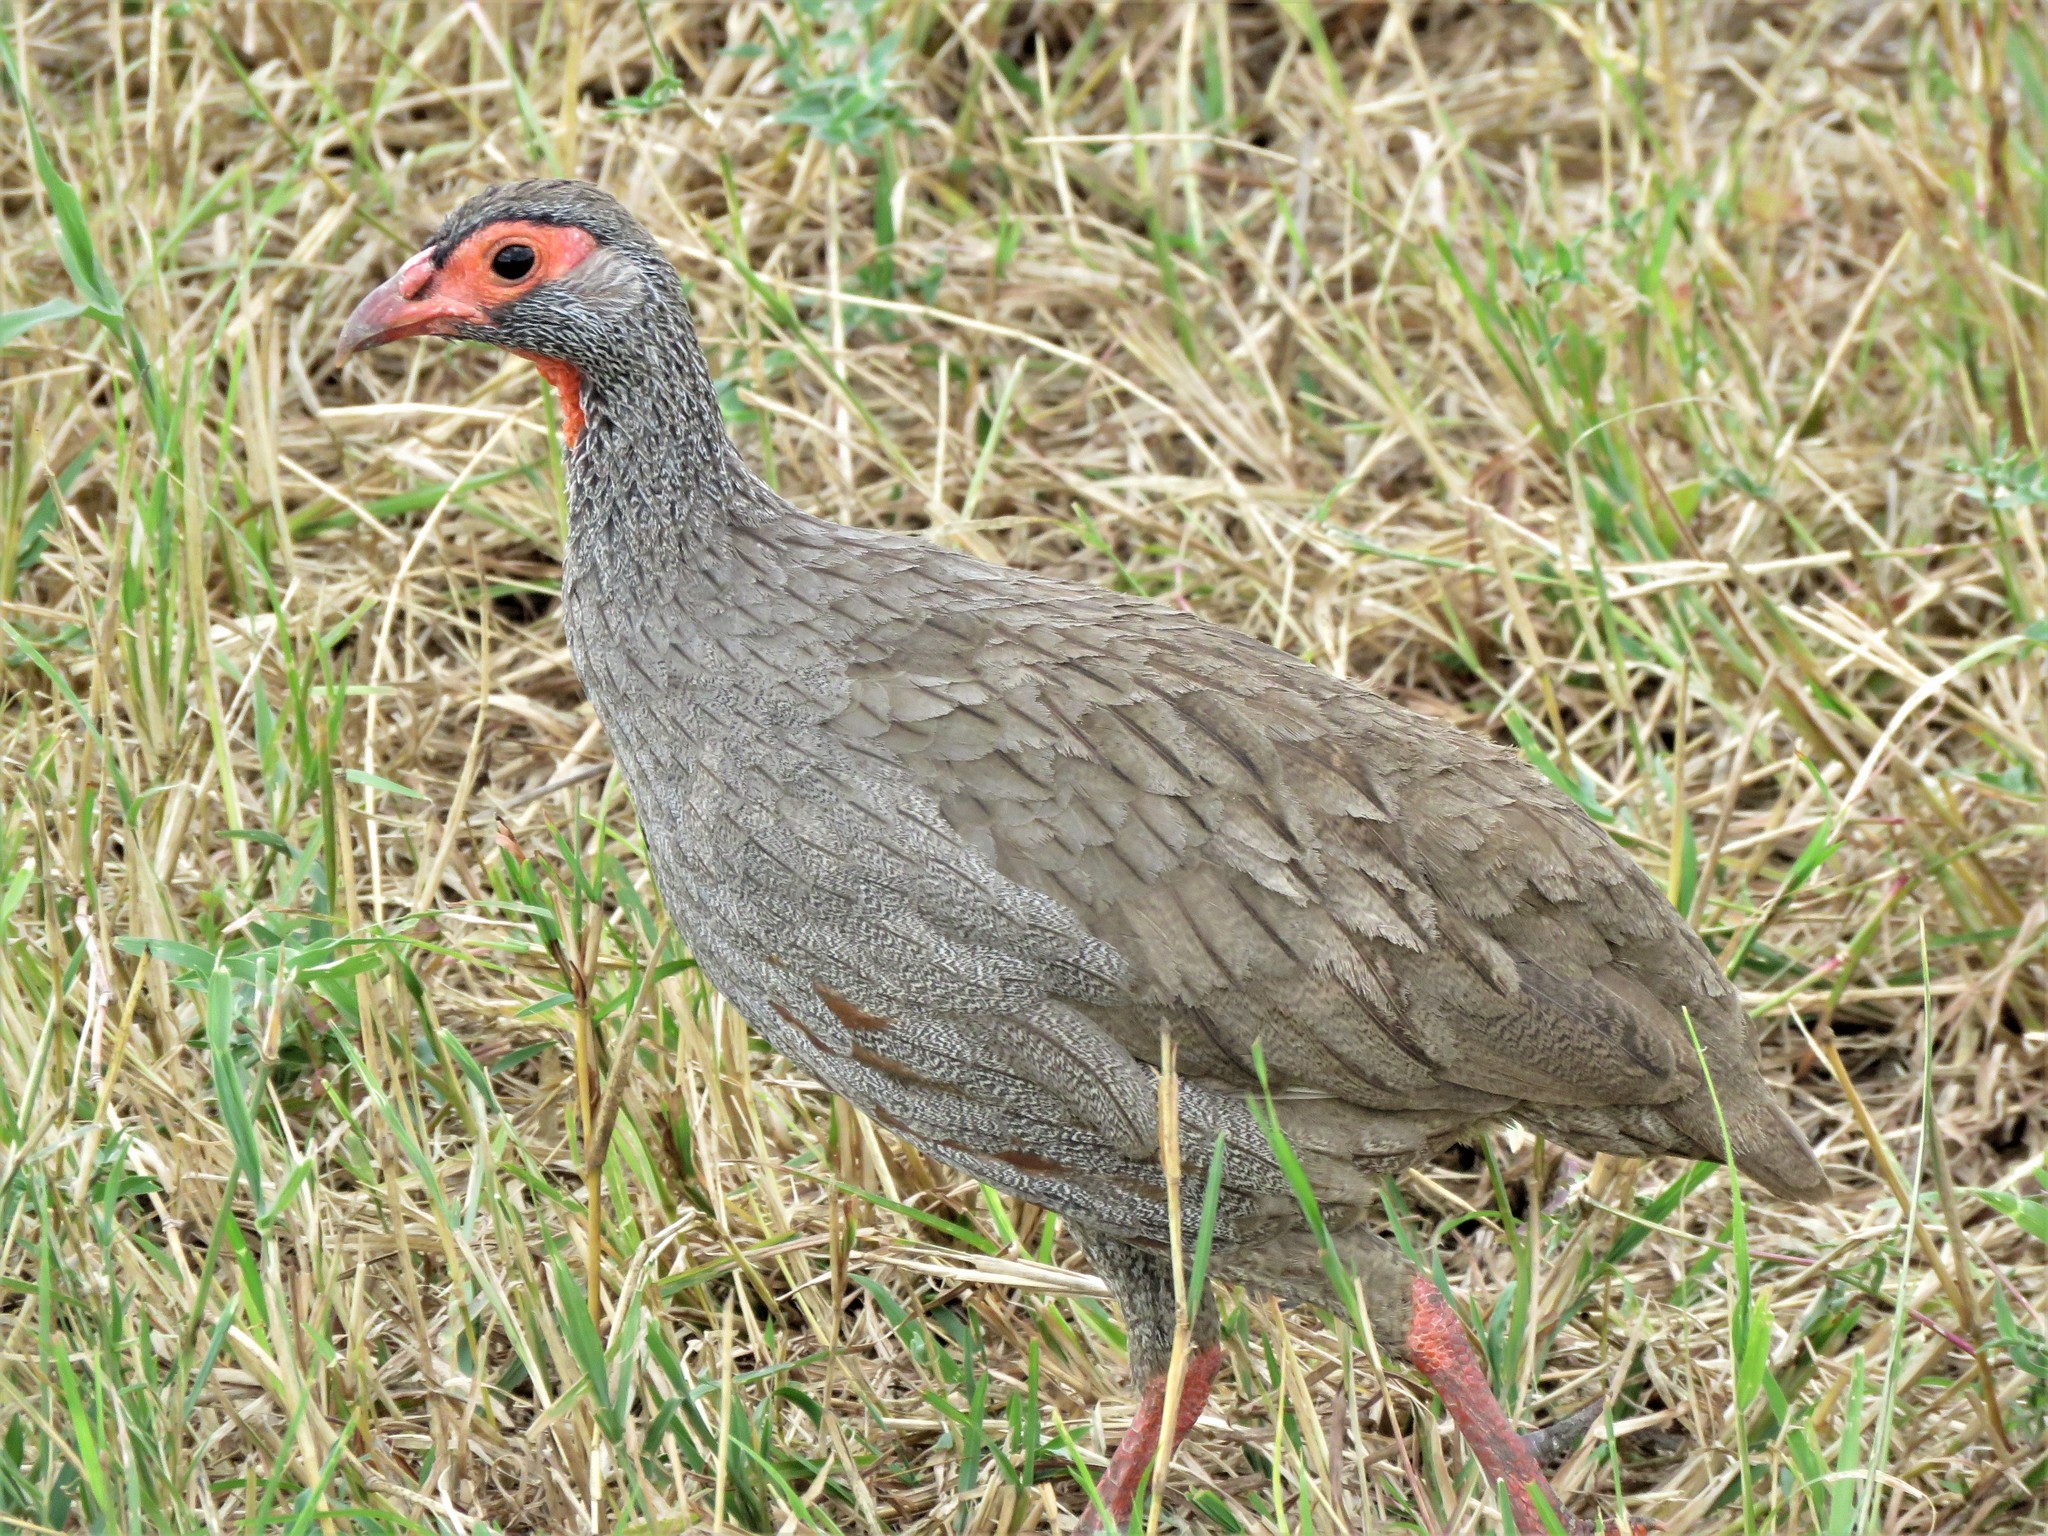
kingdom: Animalia
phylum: Chordata
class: Aves
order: Galliformes
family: Phasianidae
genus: Pternistis
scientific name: Pternistis afer
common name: Red-necked spurfowl
